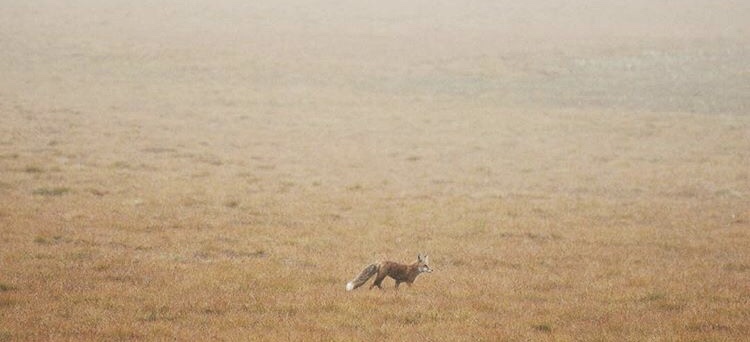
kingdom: Animalia
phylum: Chordata
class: Mammalia
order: Carnivora
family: Canidae
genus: Vulpes
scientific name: Vulpes vulpes
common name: Red fox
